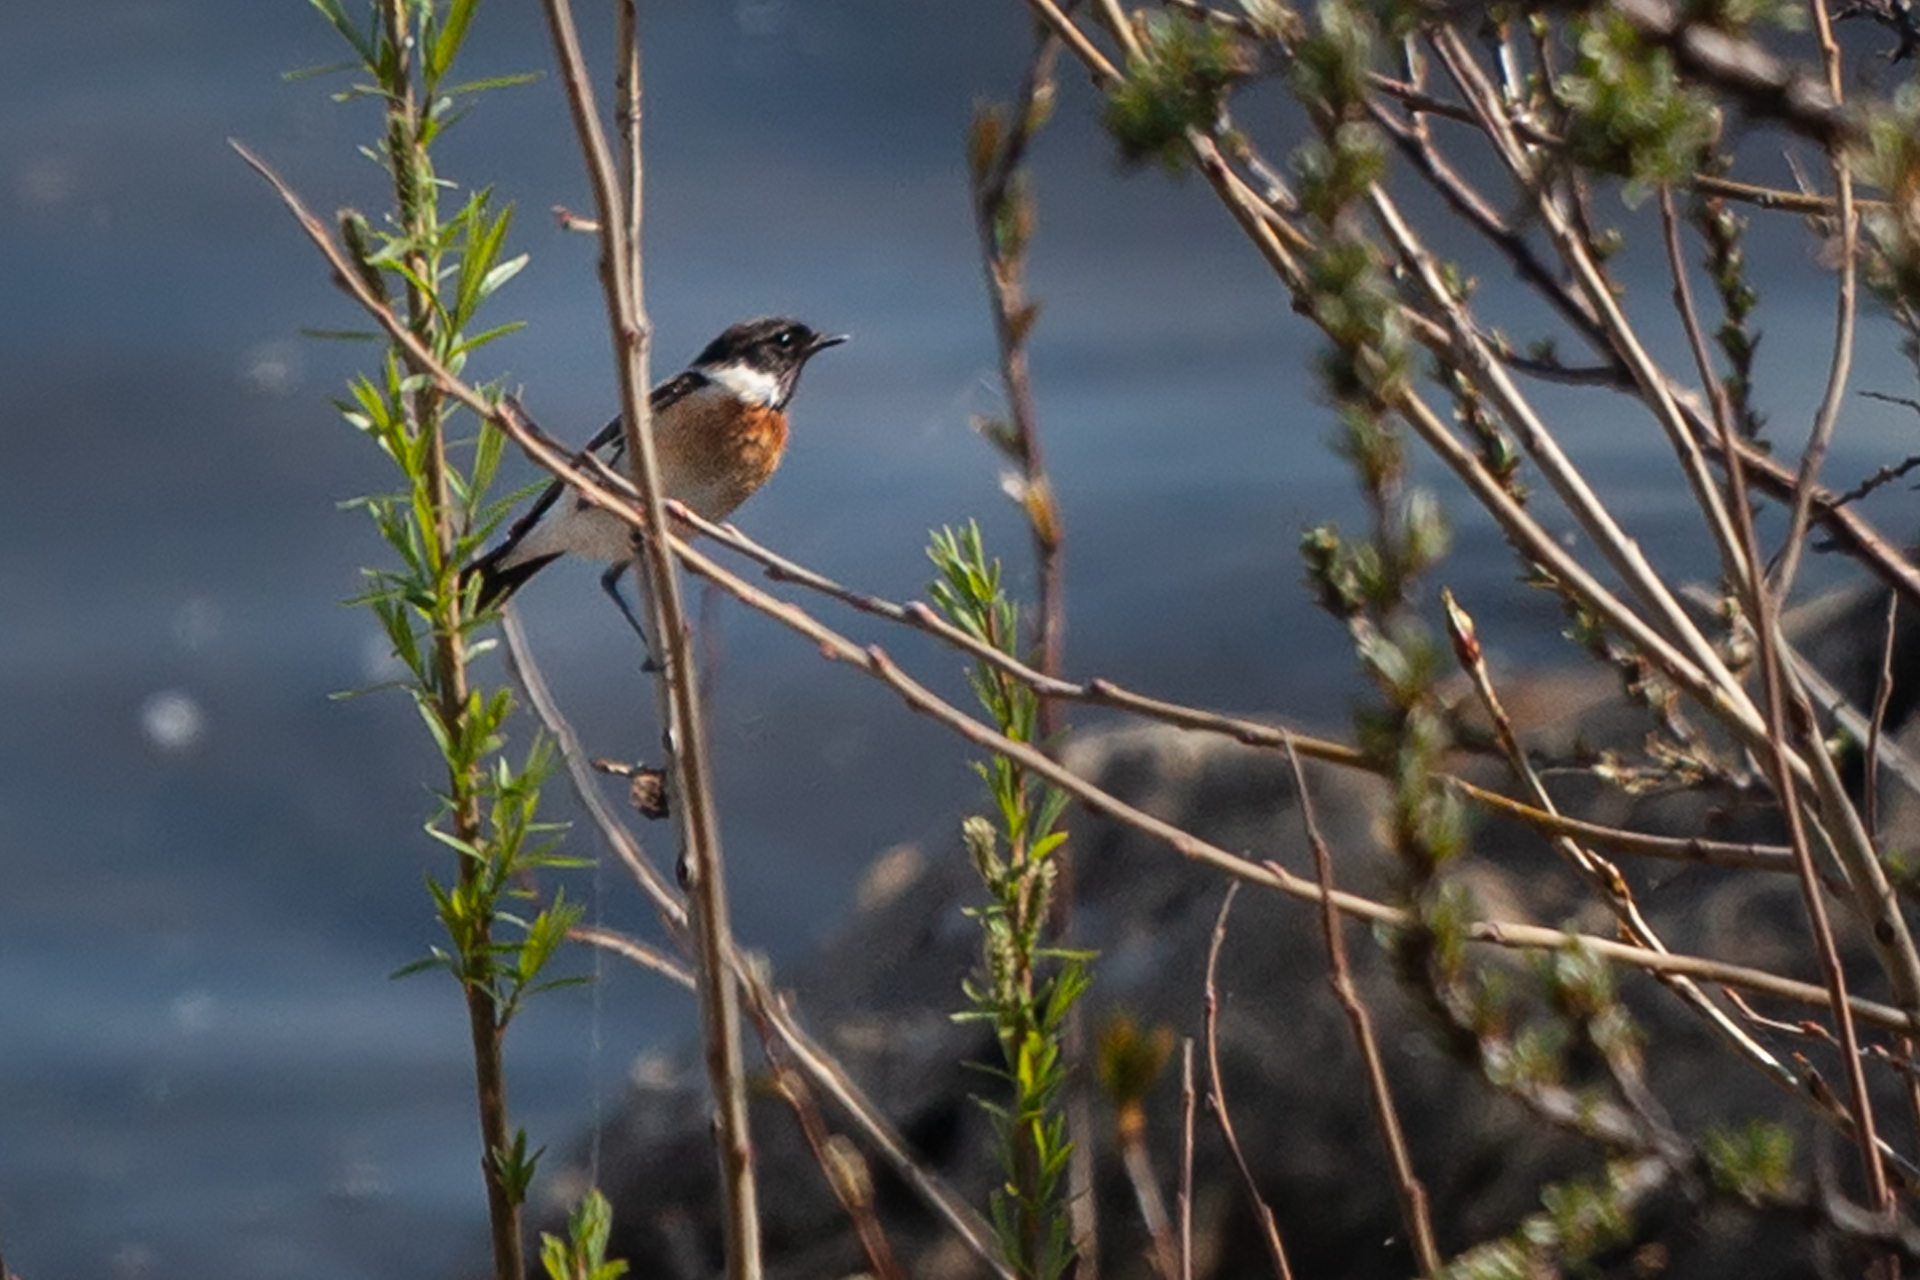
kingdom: Animalia
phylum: Chordata
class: Aves
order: Passeriformes
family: Muscicapidae
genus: Saxicola
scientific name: Saxicola maurus
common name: Siberian stonechat
